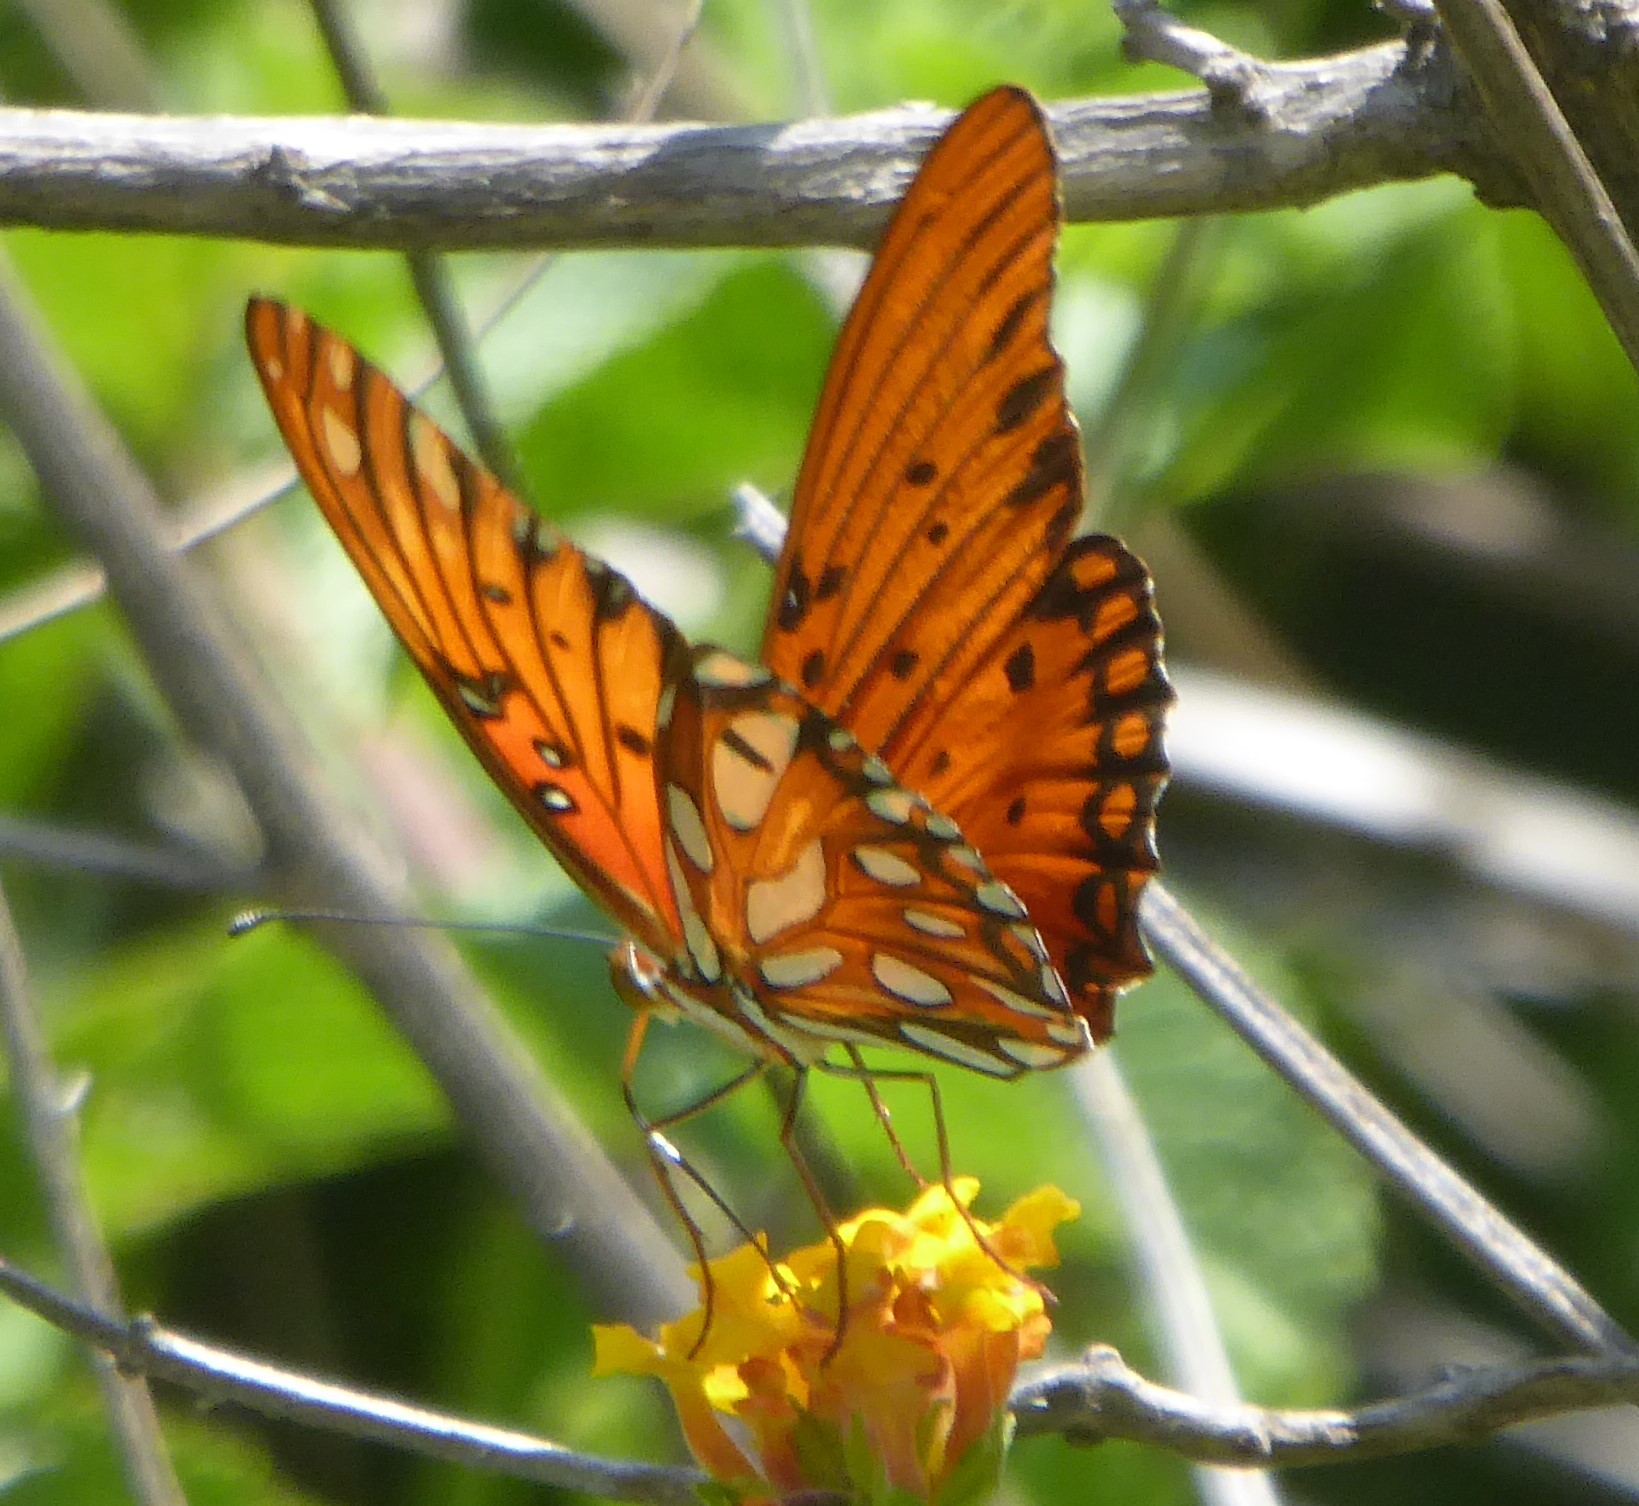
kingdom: Animalia
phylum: Arthropoda
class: Insecta
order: Lepidoptera
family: Nymphalidae
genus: Dione
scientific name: Dione vanillae
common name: Gulf fritillary
